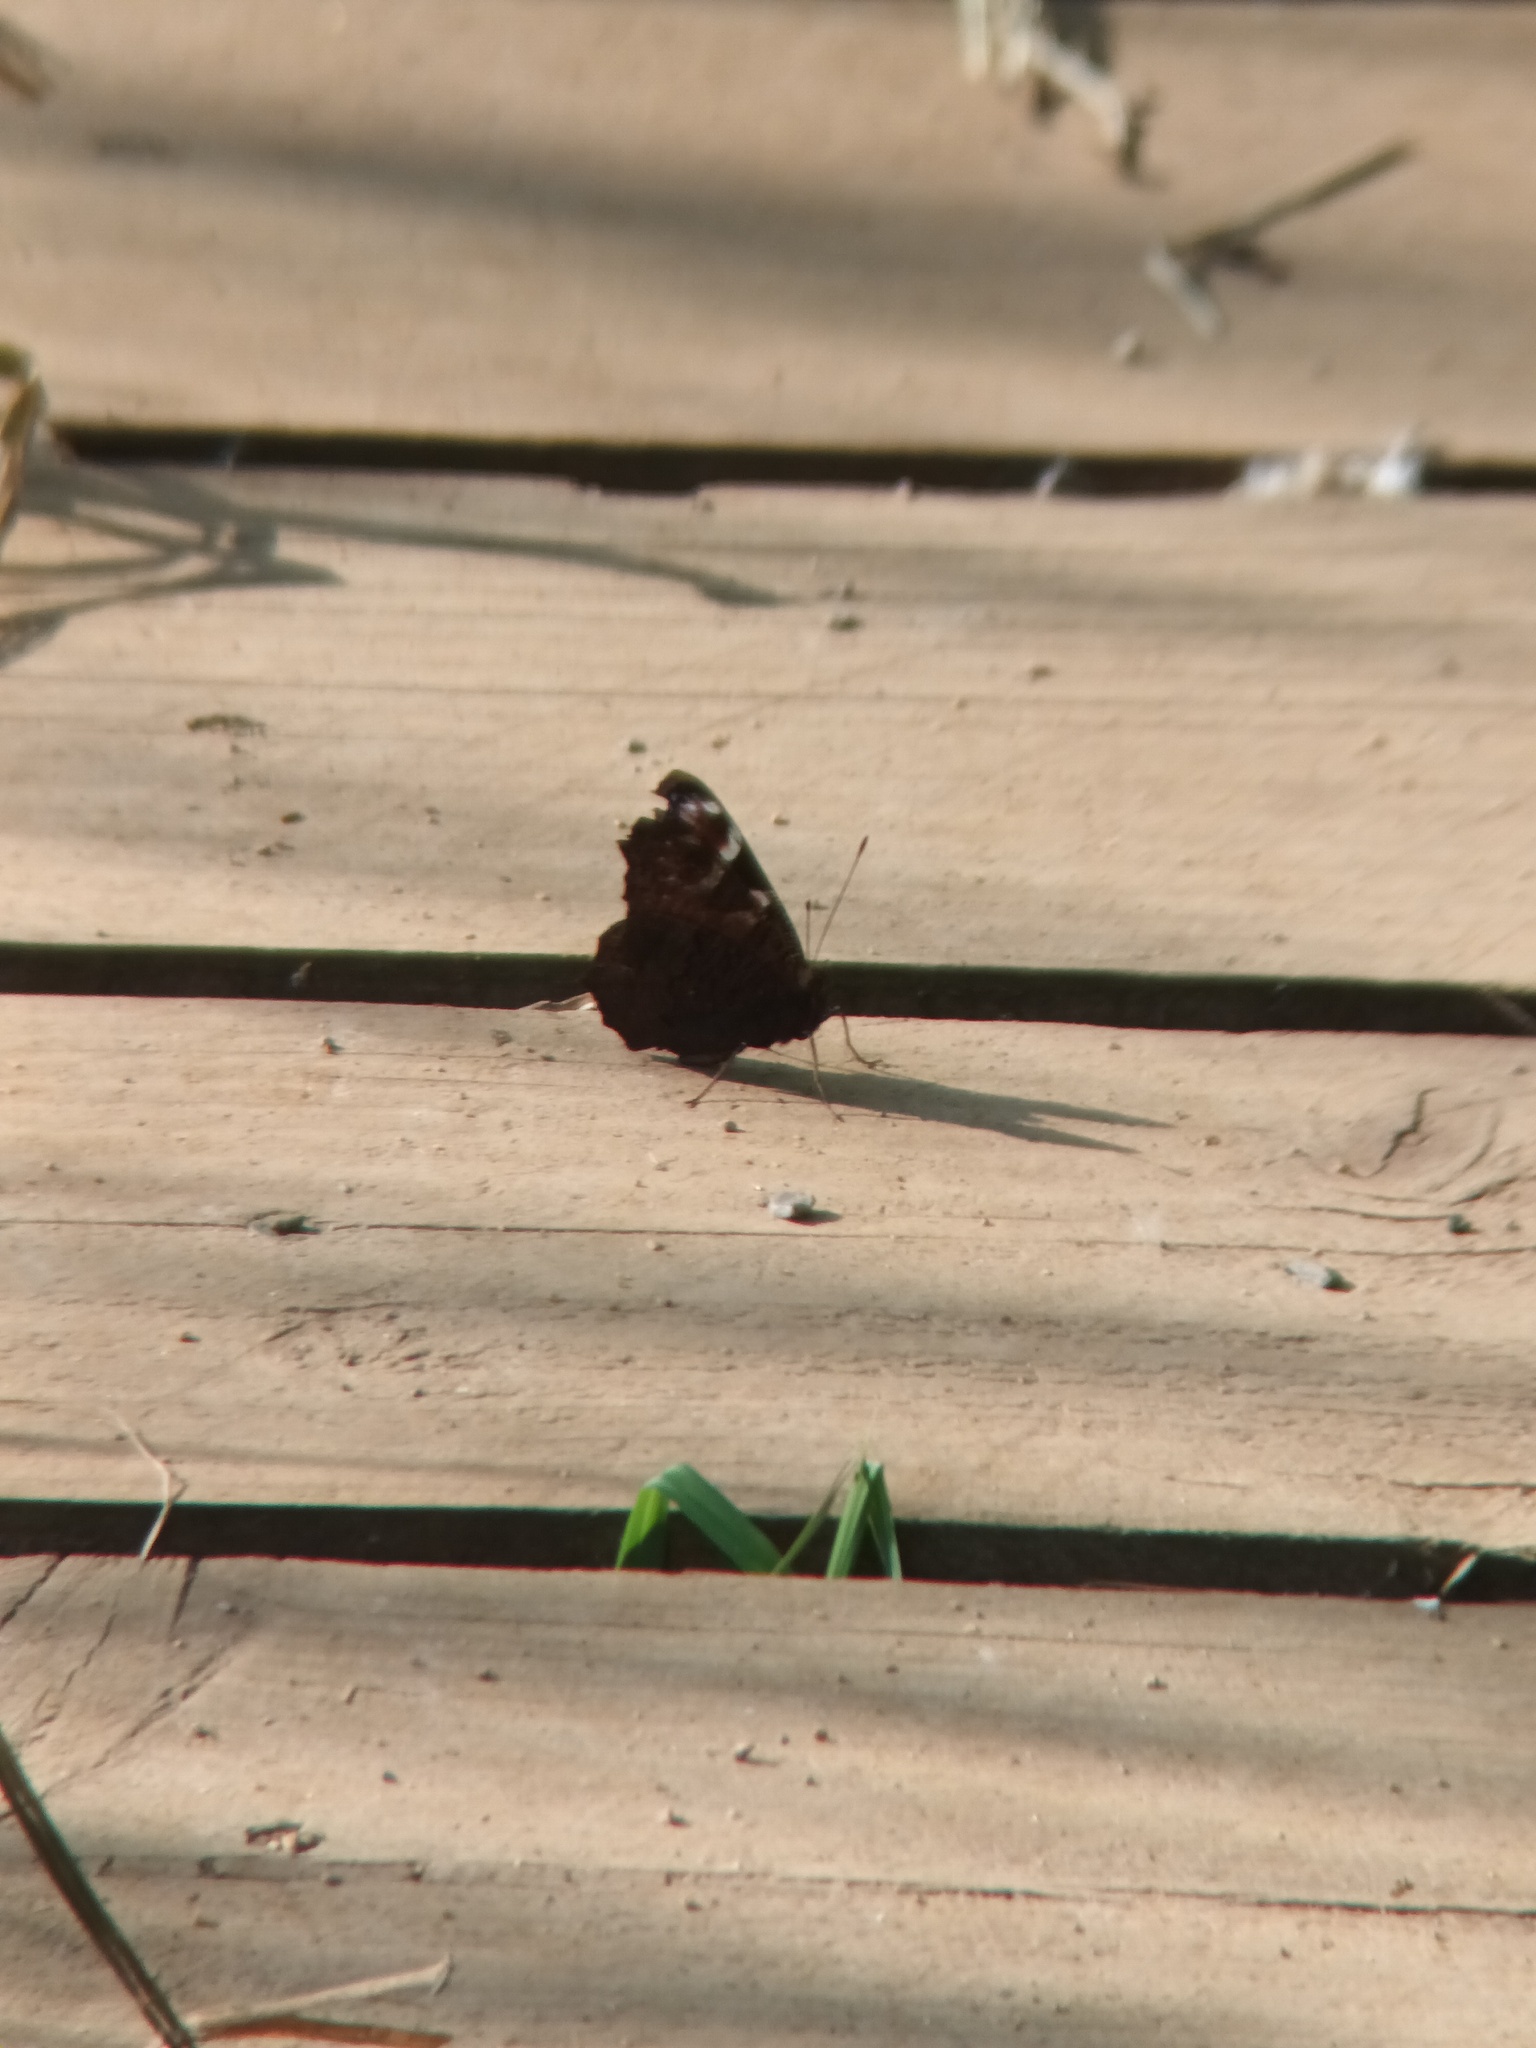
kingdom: Animalia
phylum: Arthropoda
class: Insecta
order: Lepidoptera
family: Nymphalidae
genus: Aglais
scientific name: Aglais io
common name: Peacock
